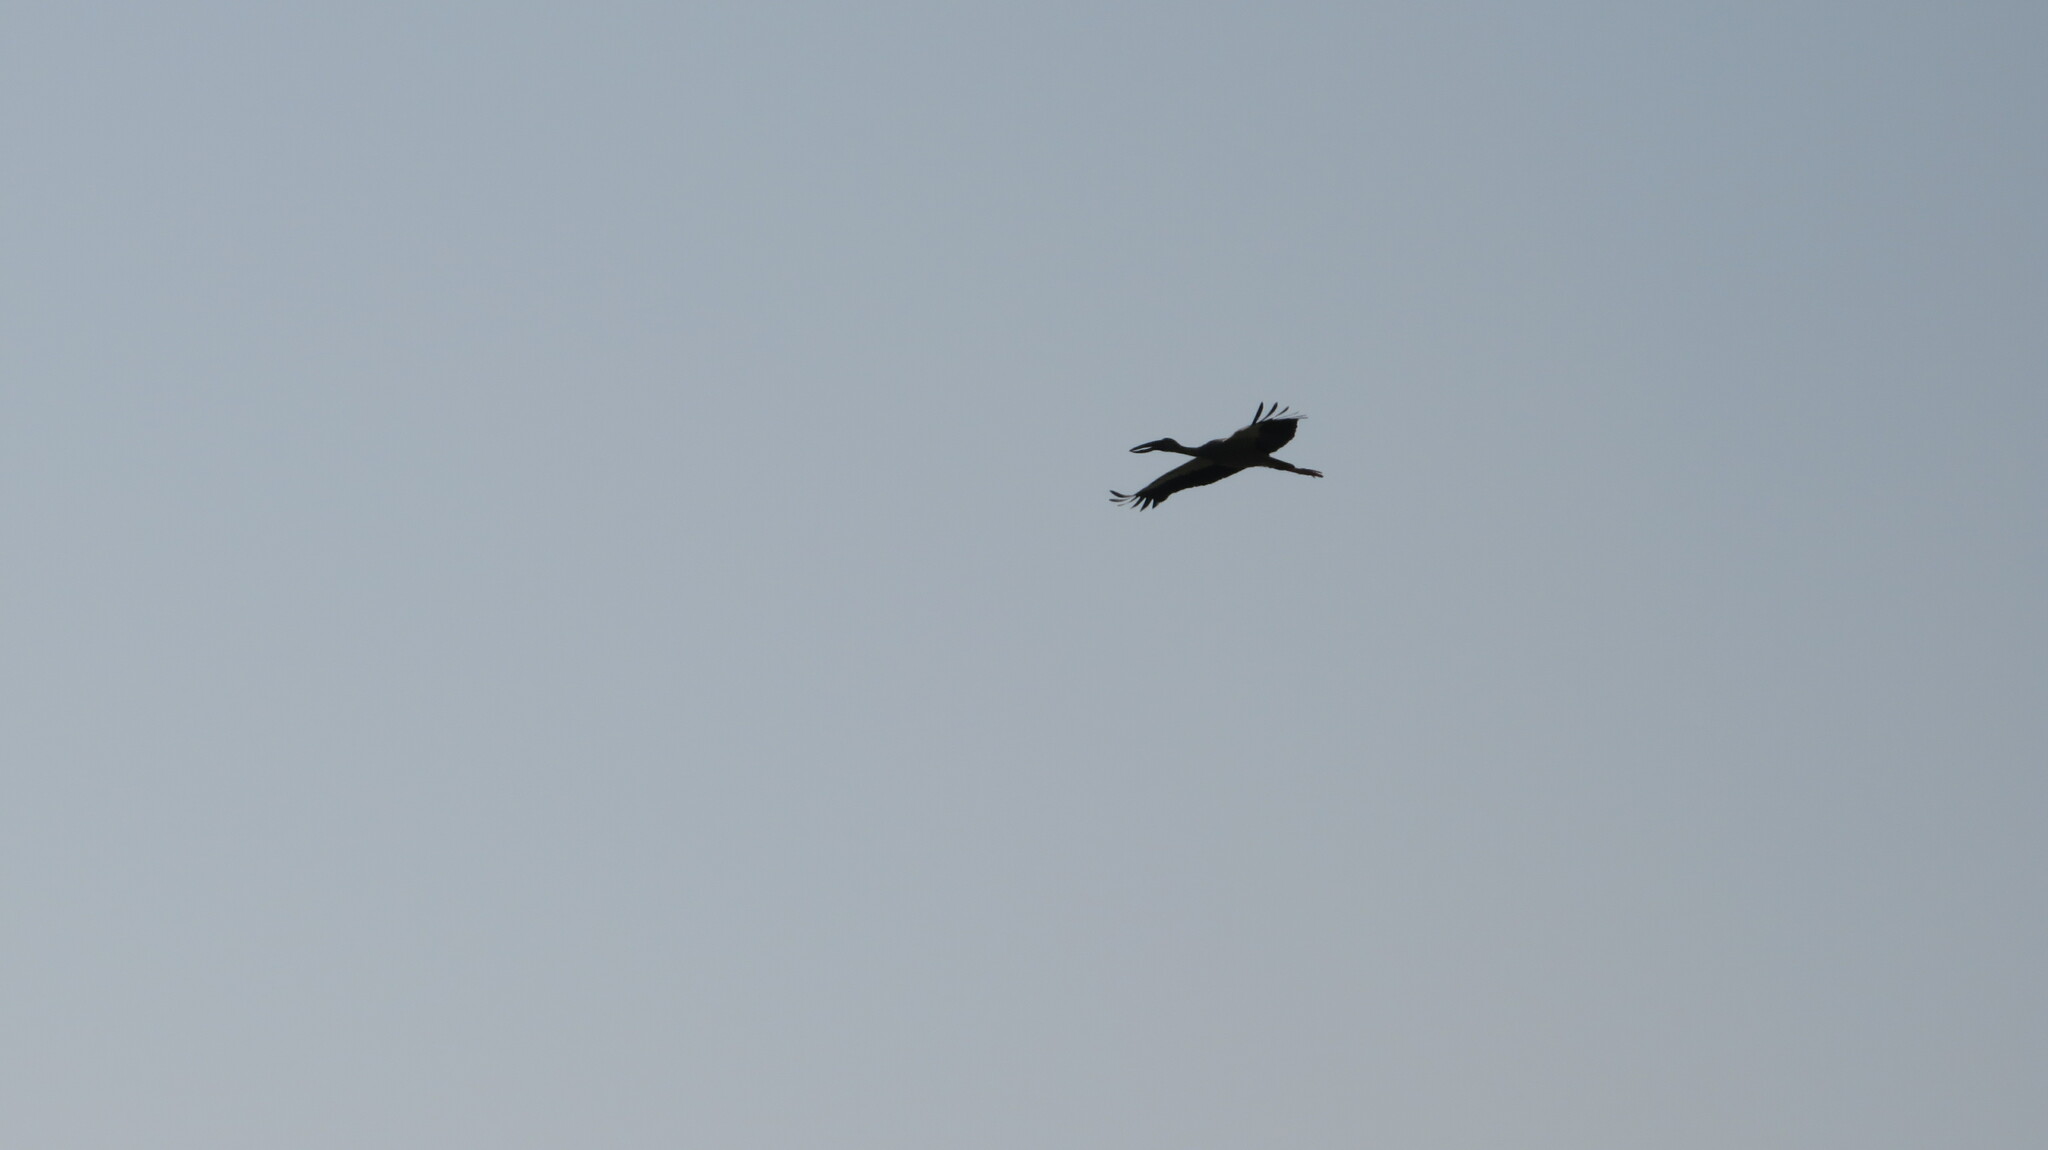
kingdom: Animalia
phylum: Chordata
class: Aves
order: Ciconiiformes
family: Ciconiidae
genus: Anastomus
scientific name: Anastomus oscitans
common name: Asian openbill
